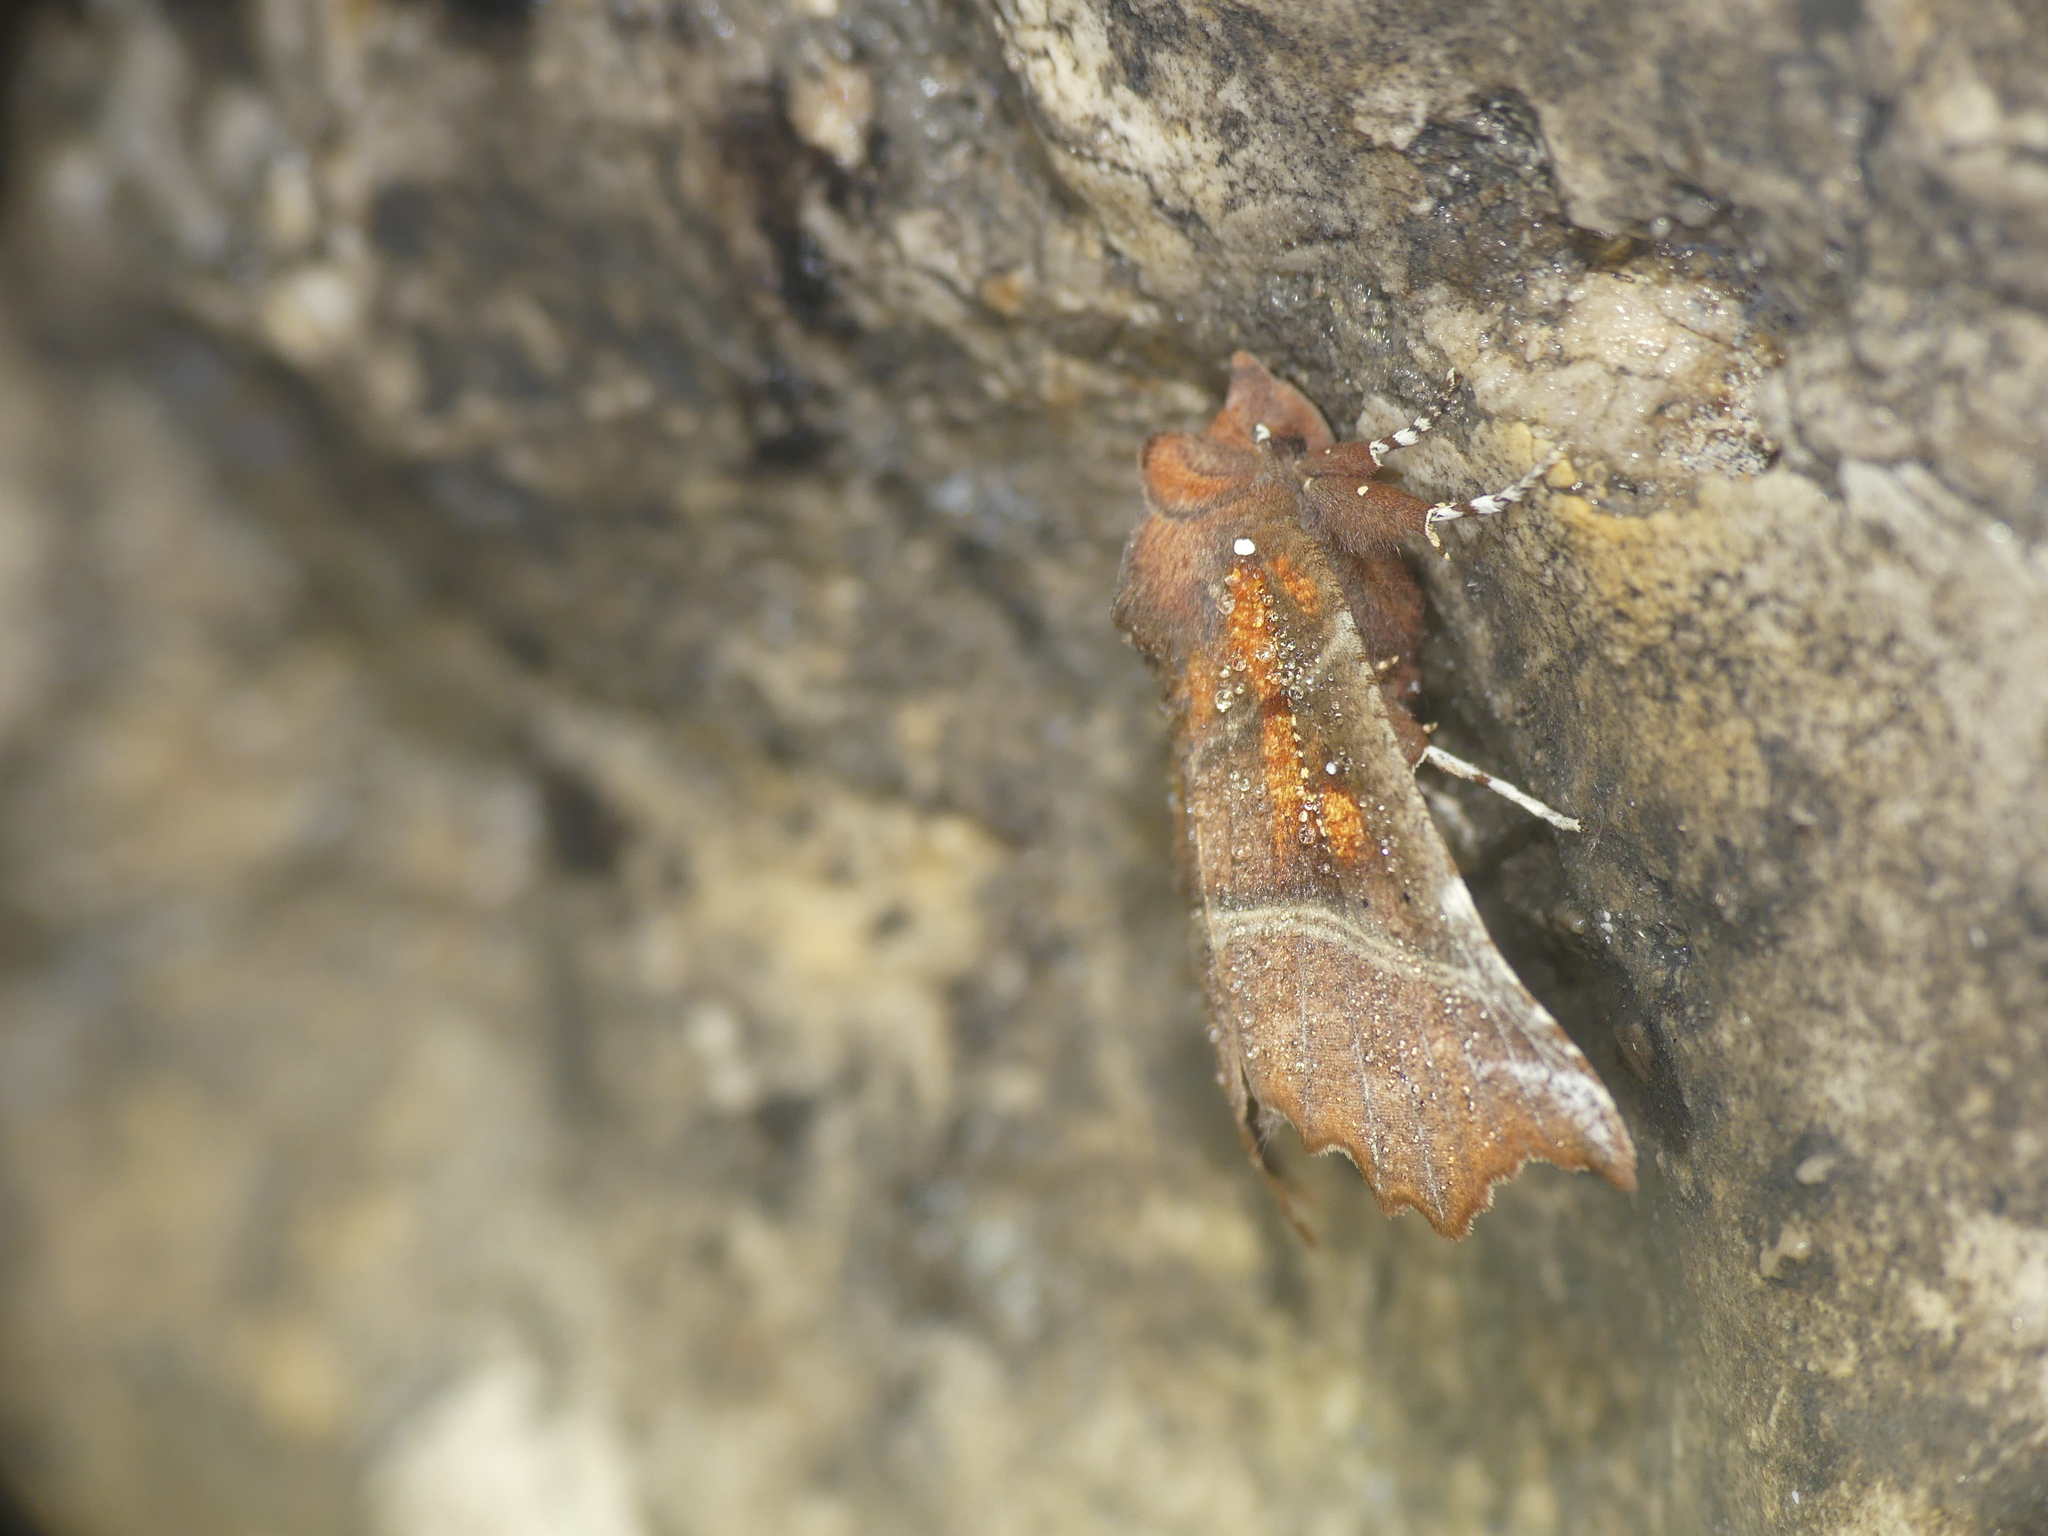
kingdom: Animalia
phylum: Arthropoda
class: Insecta
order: Lepidoptera
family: Erebidae
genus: Scoliopteryx
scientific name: Scoliopteryx libatrix
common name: Herald
